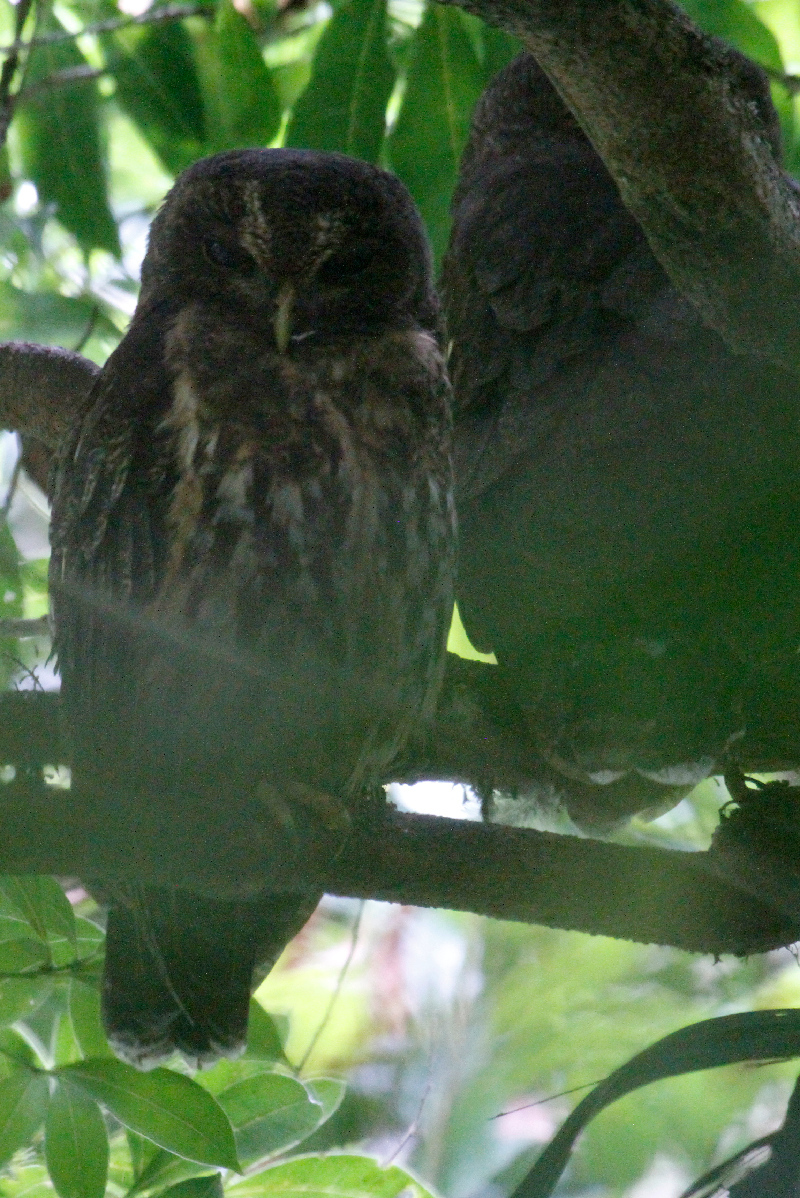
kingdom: Animalia
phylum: Chordata
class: Aves
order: Strigiformes
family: Strigidae
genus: Strix
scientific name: Strix virgata
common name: Mottled owl
